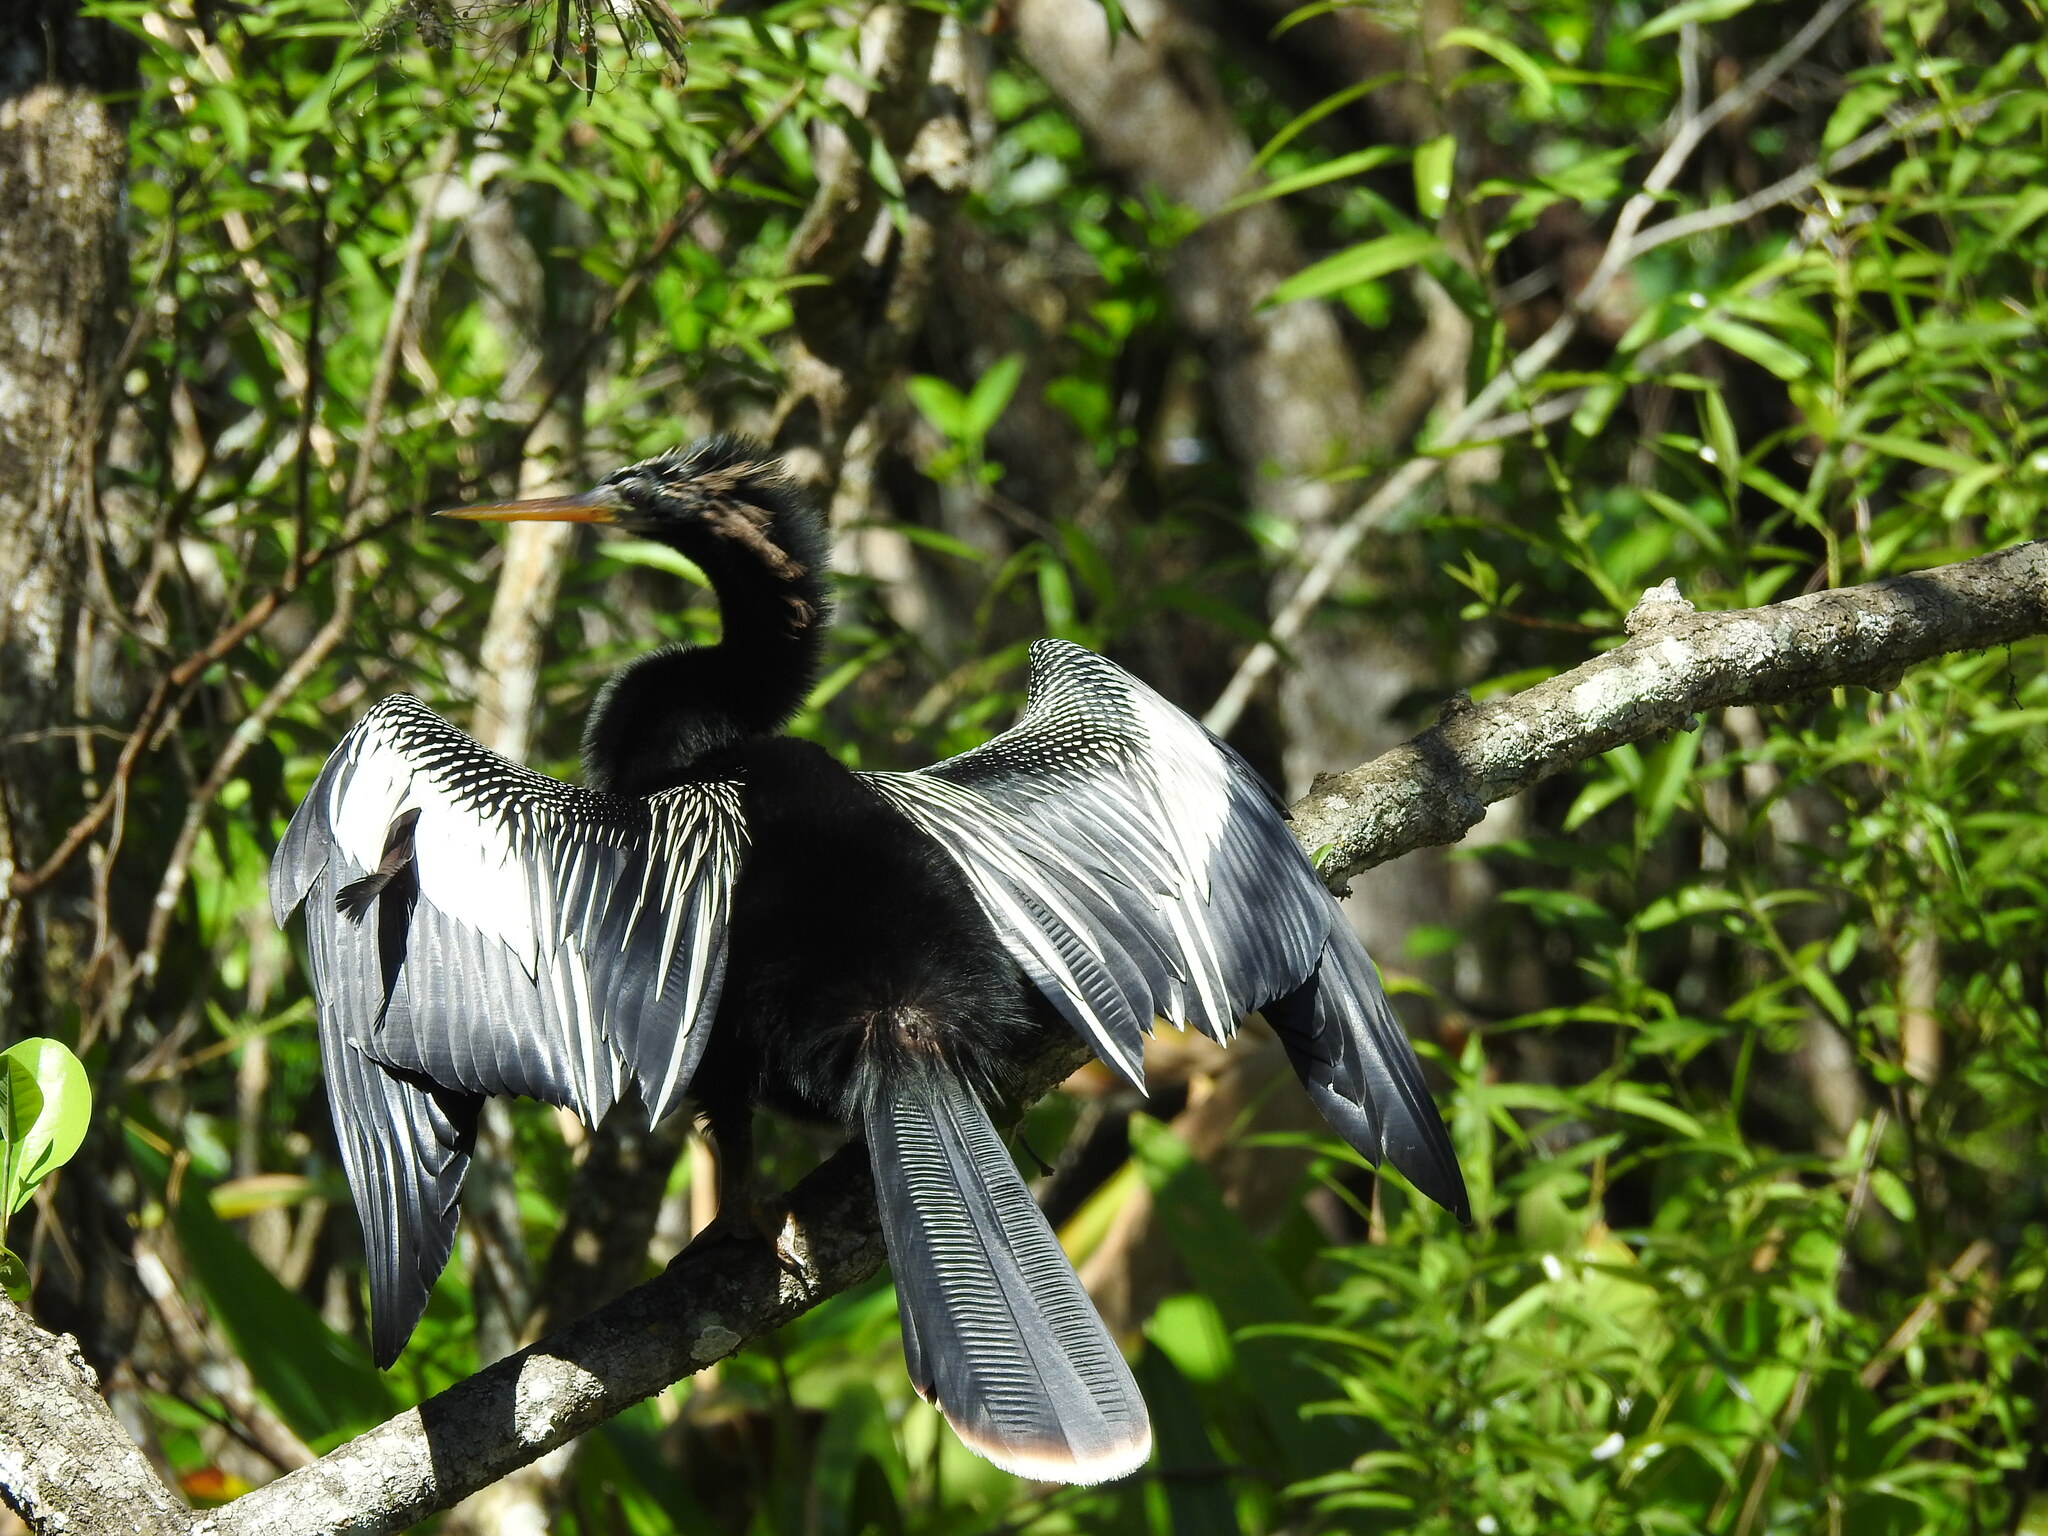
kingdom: Animalia
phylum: Chordata
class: Aves
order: Suliformes
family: Anhingidae
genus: Anhinga
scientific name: Anhinga anhinga
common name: Anhinga
